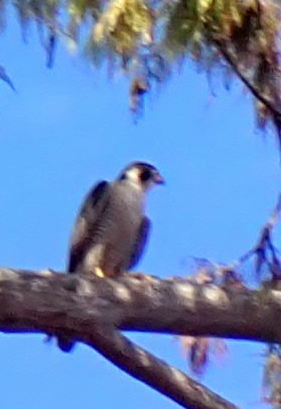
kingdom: Animalia
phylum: Chordata
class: Aves
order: Falconiformes
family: Falconidae
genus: Falco
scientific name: Falco peregrinus
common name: Peregrine falcon
